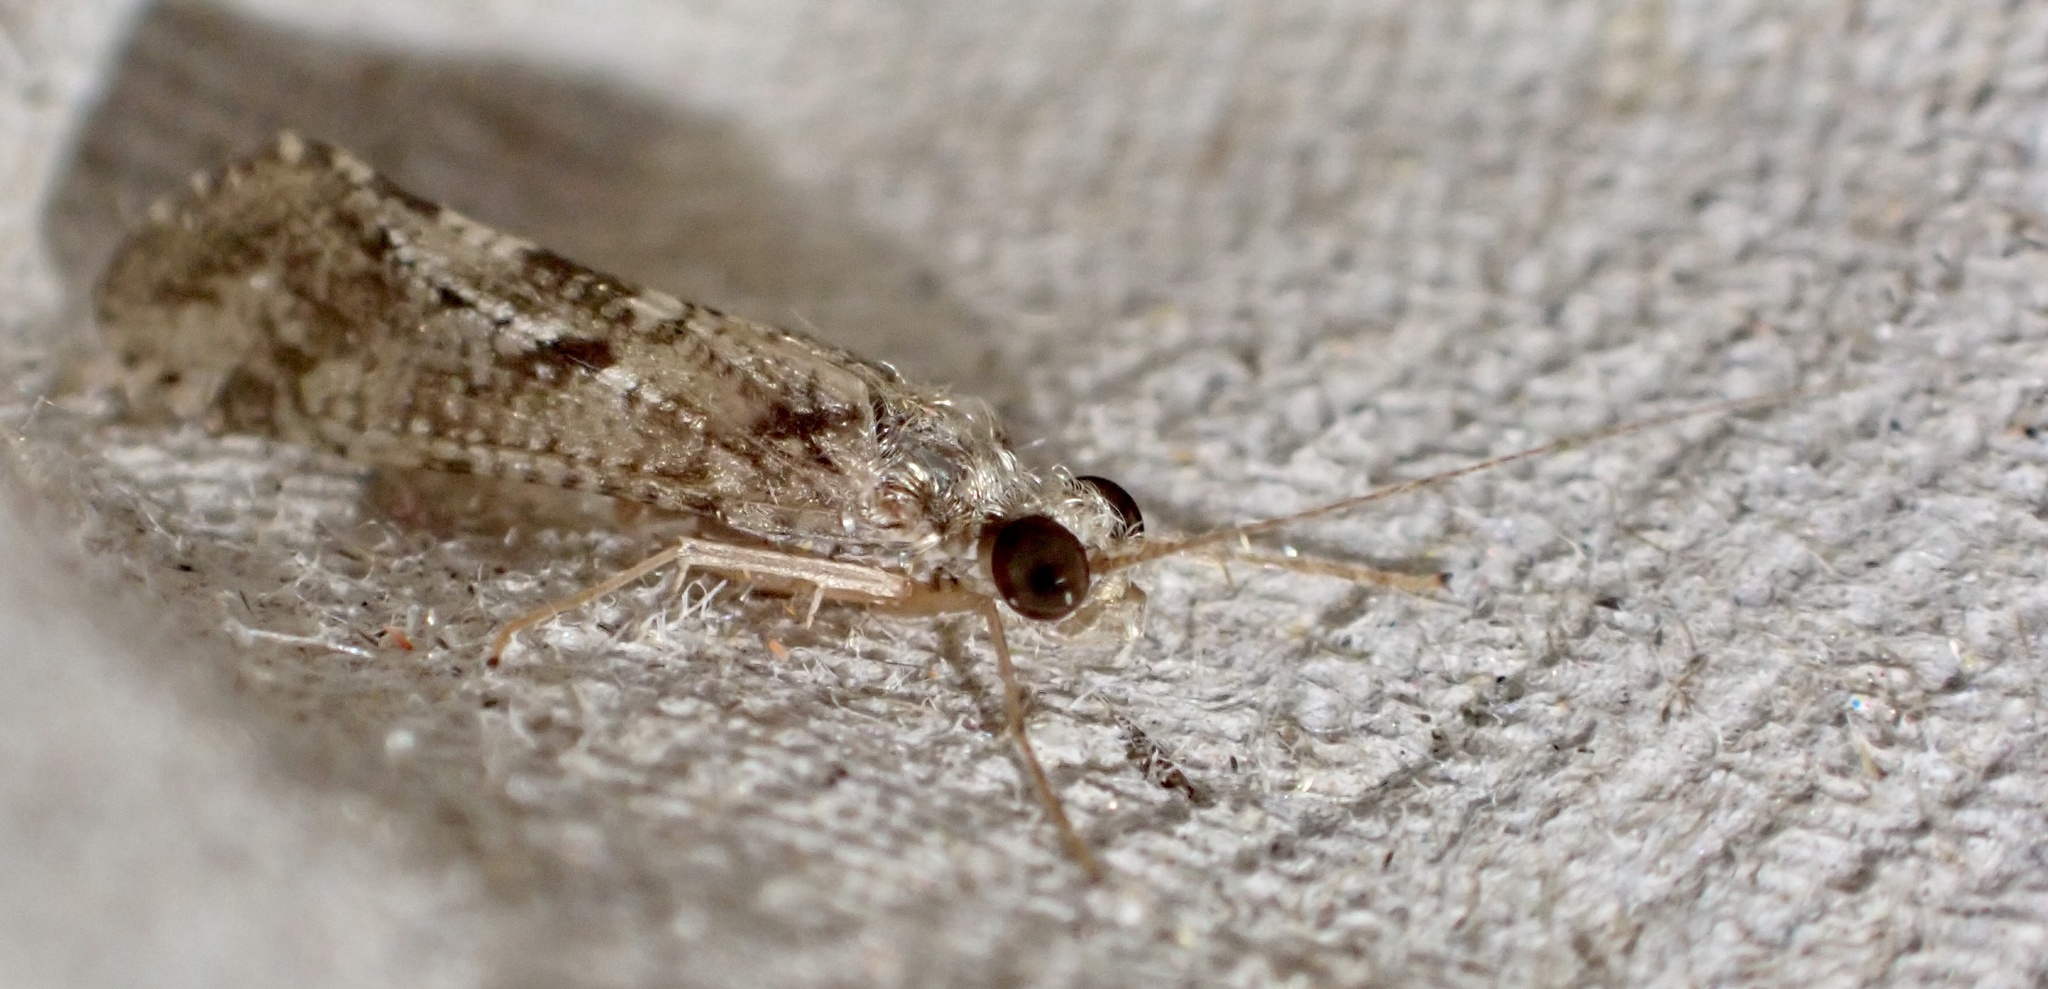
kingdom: Animalia
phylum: Arthropoda
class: Insecta
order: Trichoptera
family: Hydropsychidae
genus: Hydropsyche
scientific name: Hydropsyche exocellata
